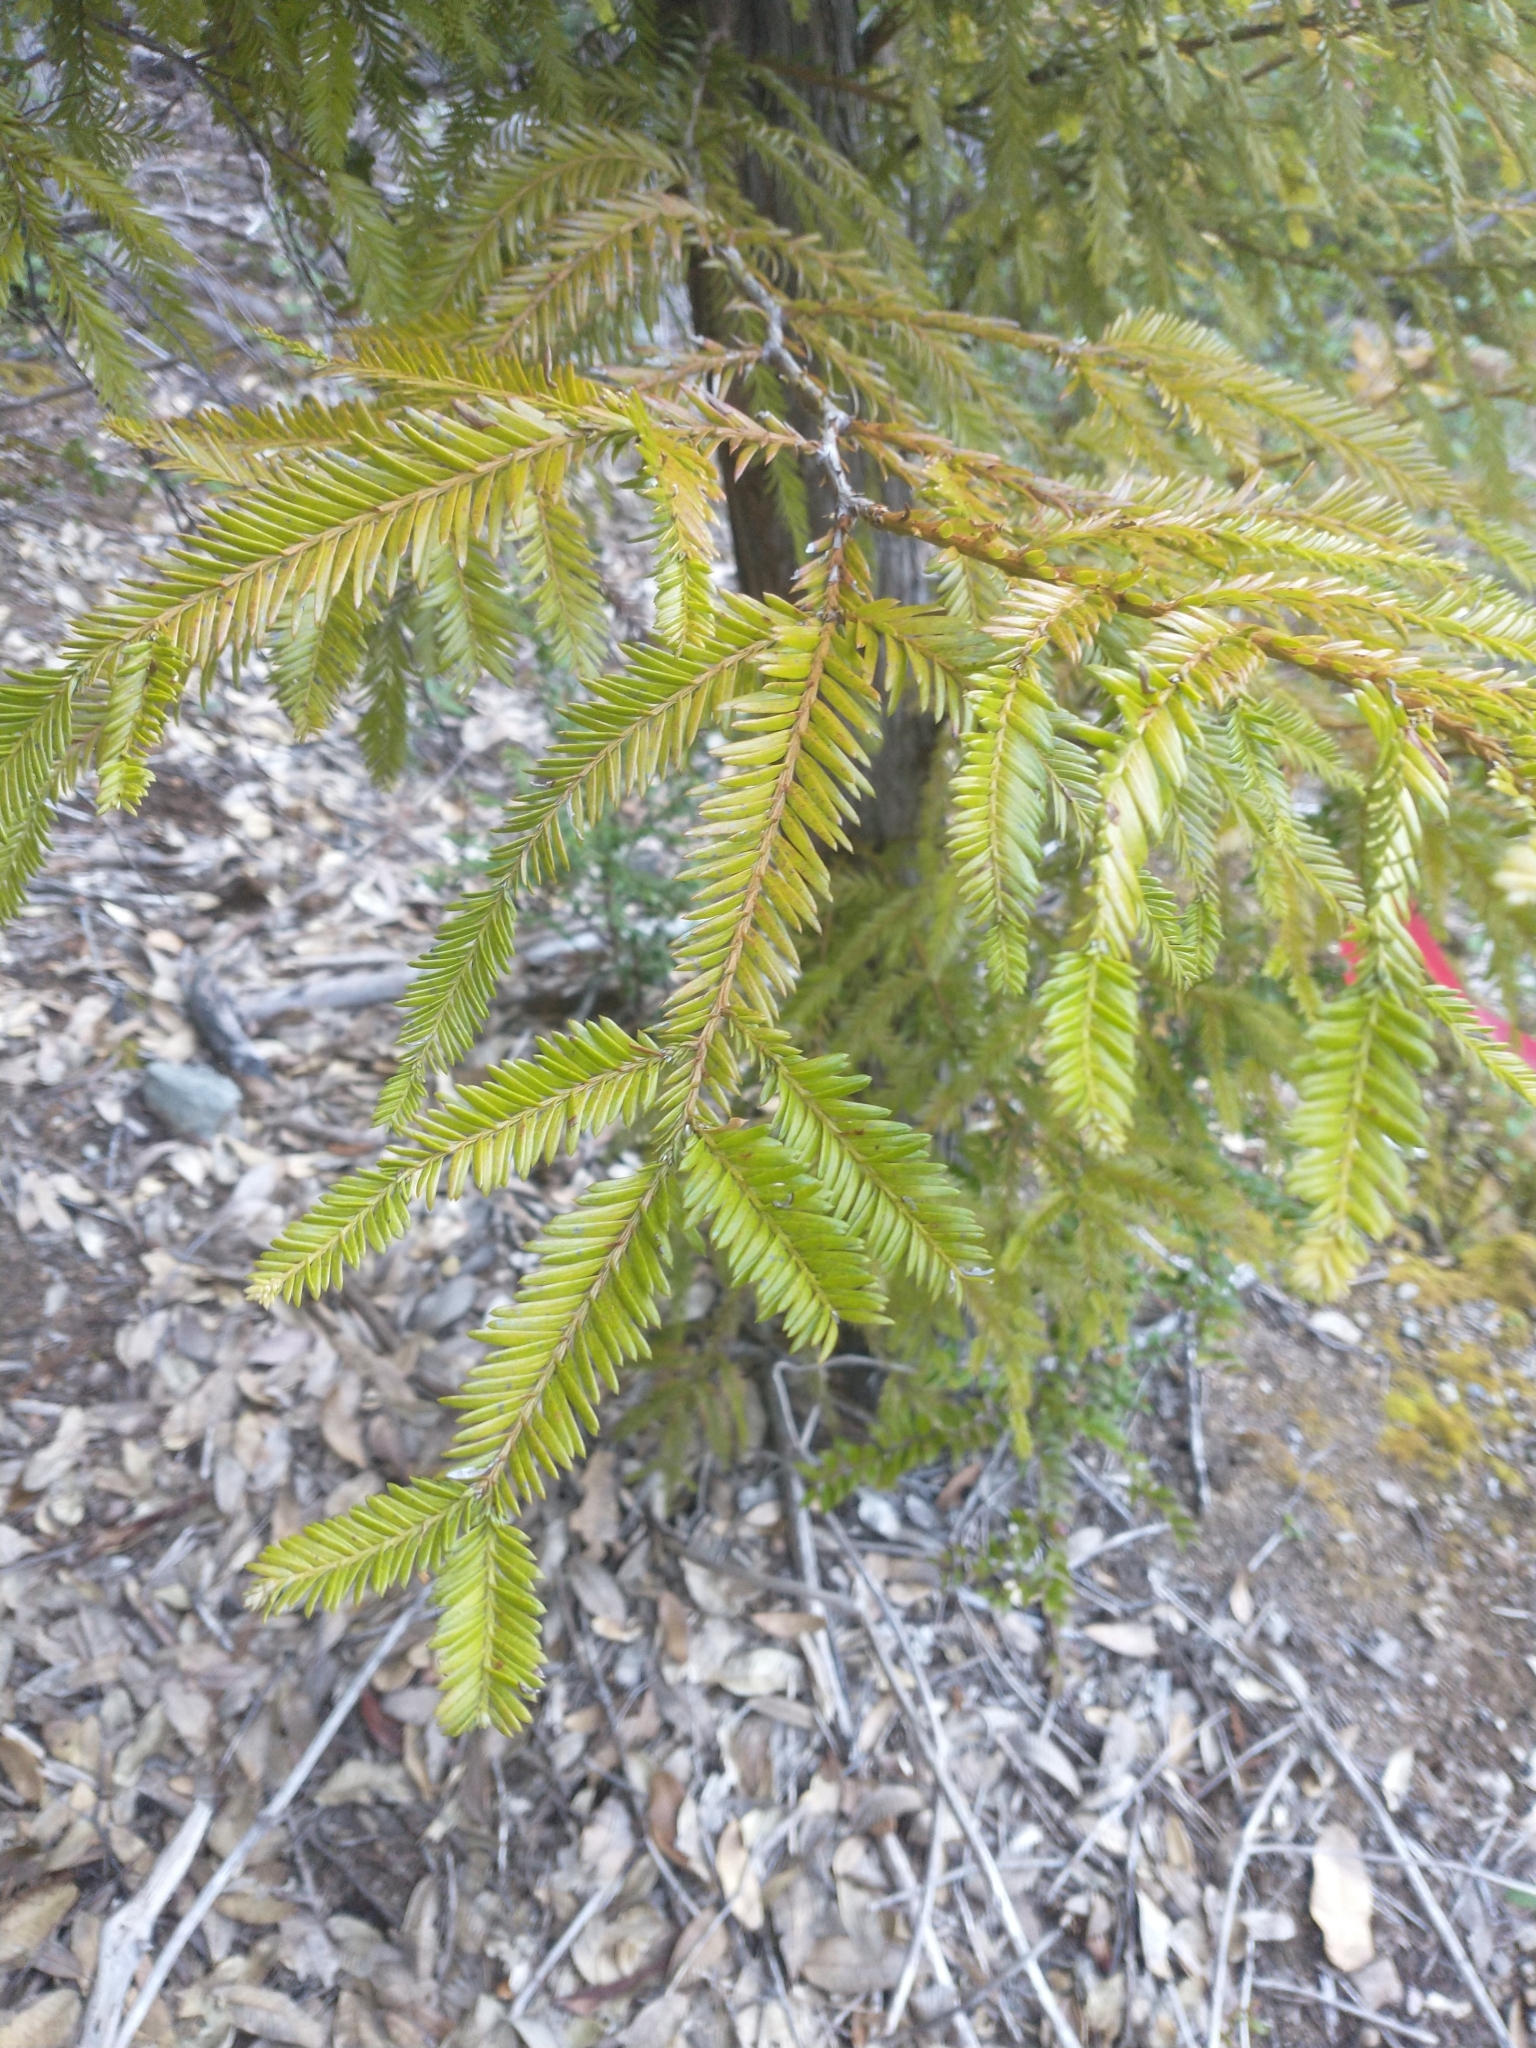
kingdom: Plantae
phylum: Tracheophyta
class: Pinopsida
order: Pinales
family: Cupressaceae
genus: Sequoia
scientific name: Sequoia sempervirens
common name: Coast redwood
